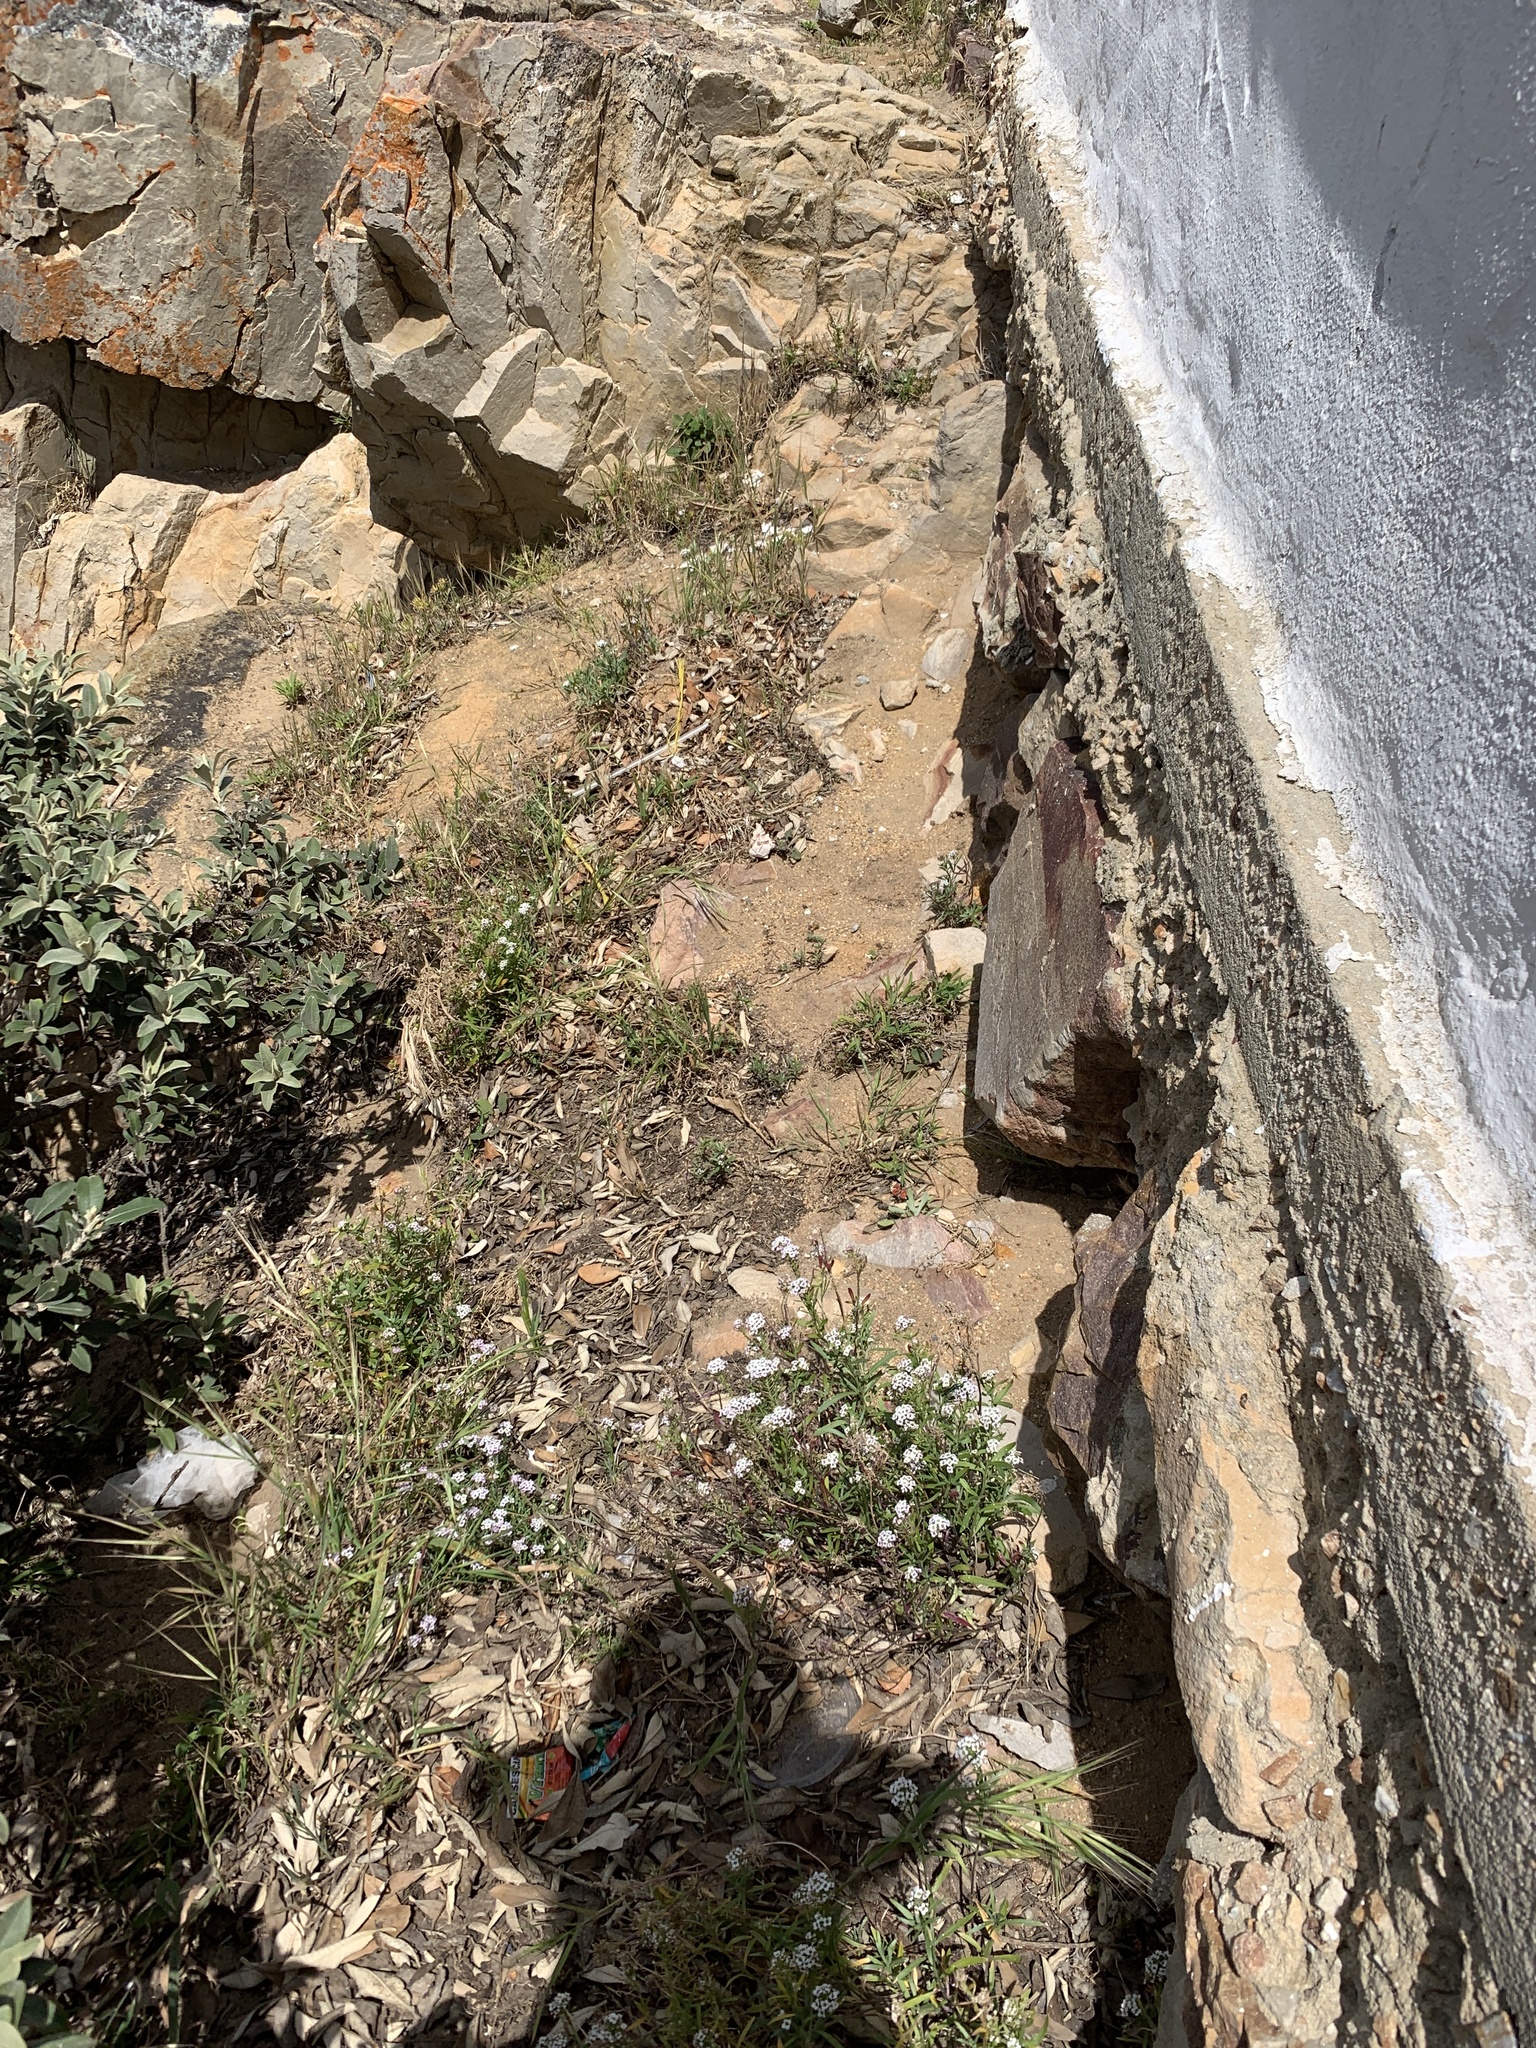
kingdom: Plantae
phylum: Tracheophyta
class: Magnoliopsida
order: Brassicales
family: Brassicaceae
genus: Lobularia
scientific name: Lobularia maritima
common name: Sweet alison
